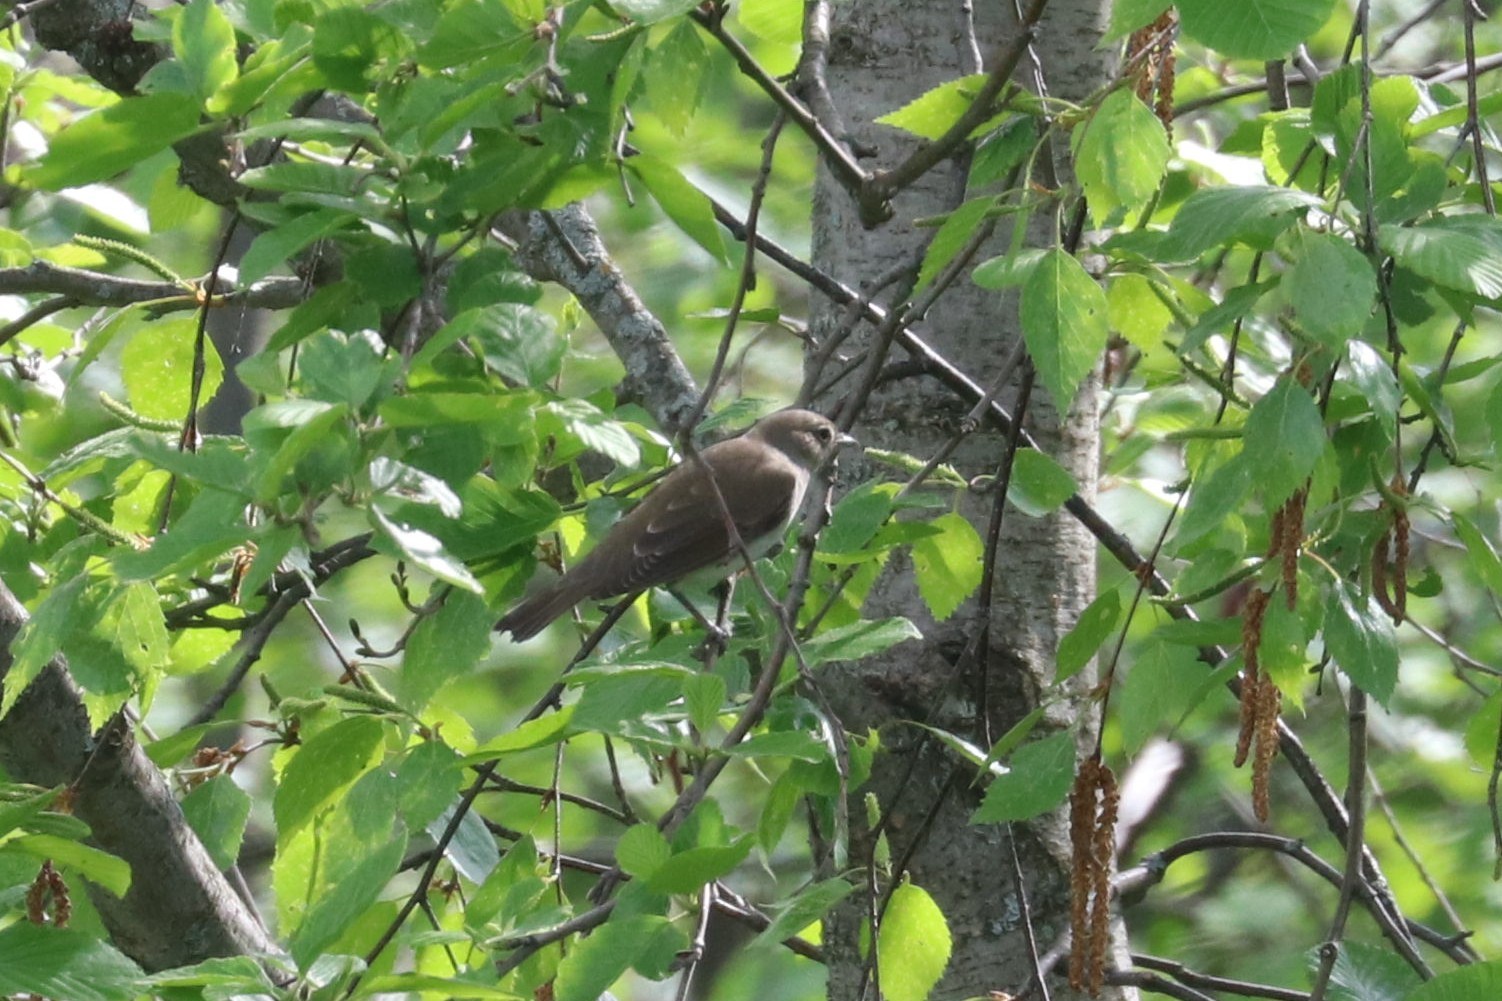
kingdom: Animalia
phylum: Chordata
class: Aves
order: Passeriformes
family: Sylviidae
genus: Sylvia
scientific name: Sylvia borin
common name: Garden warbler
